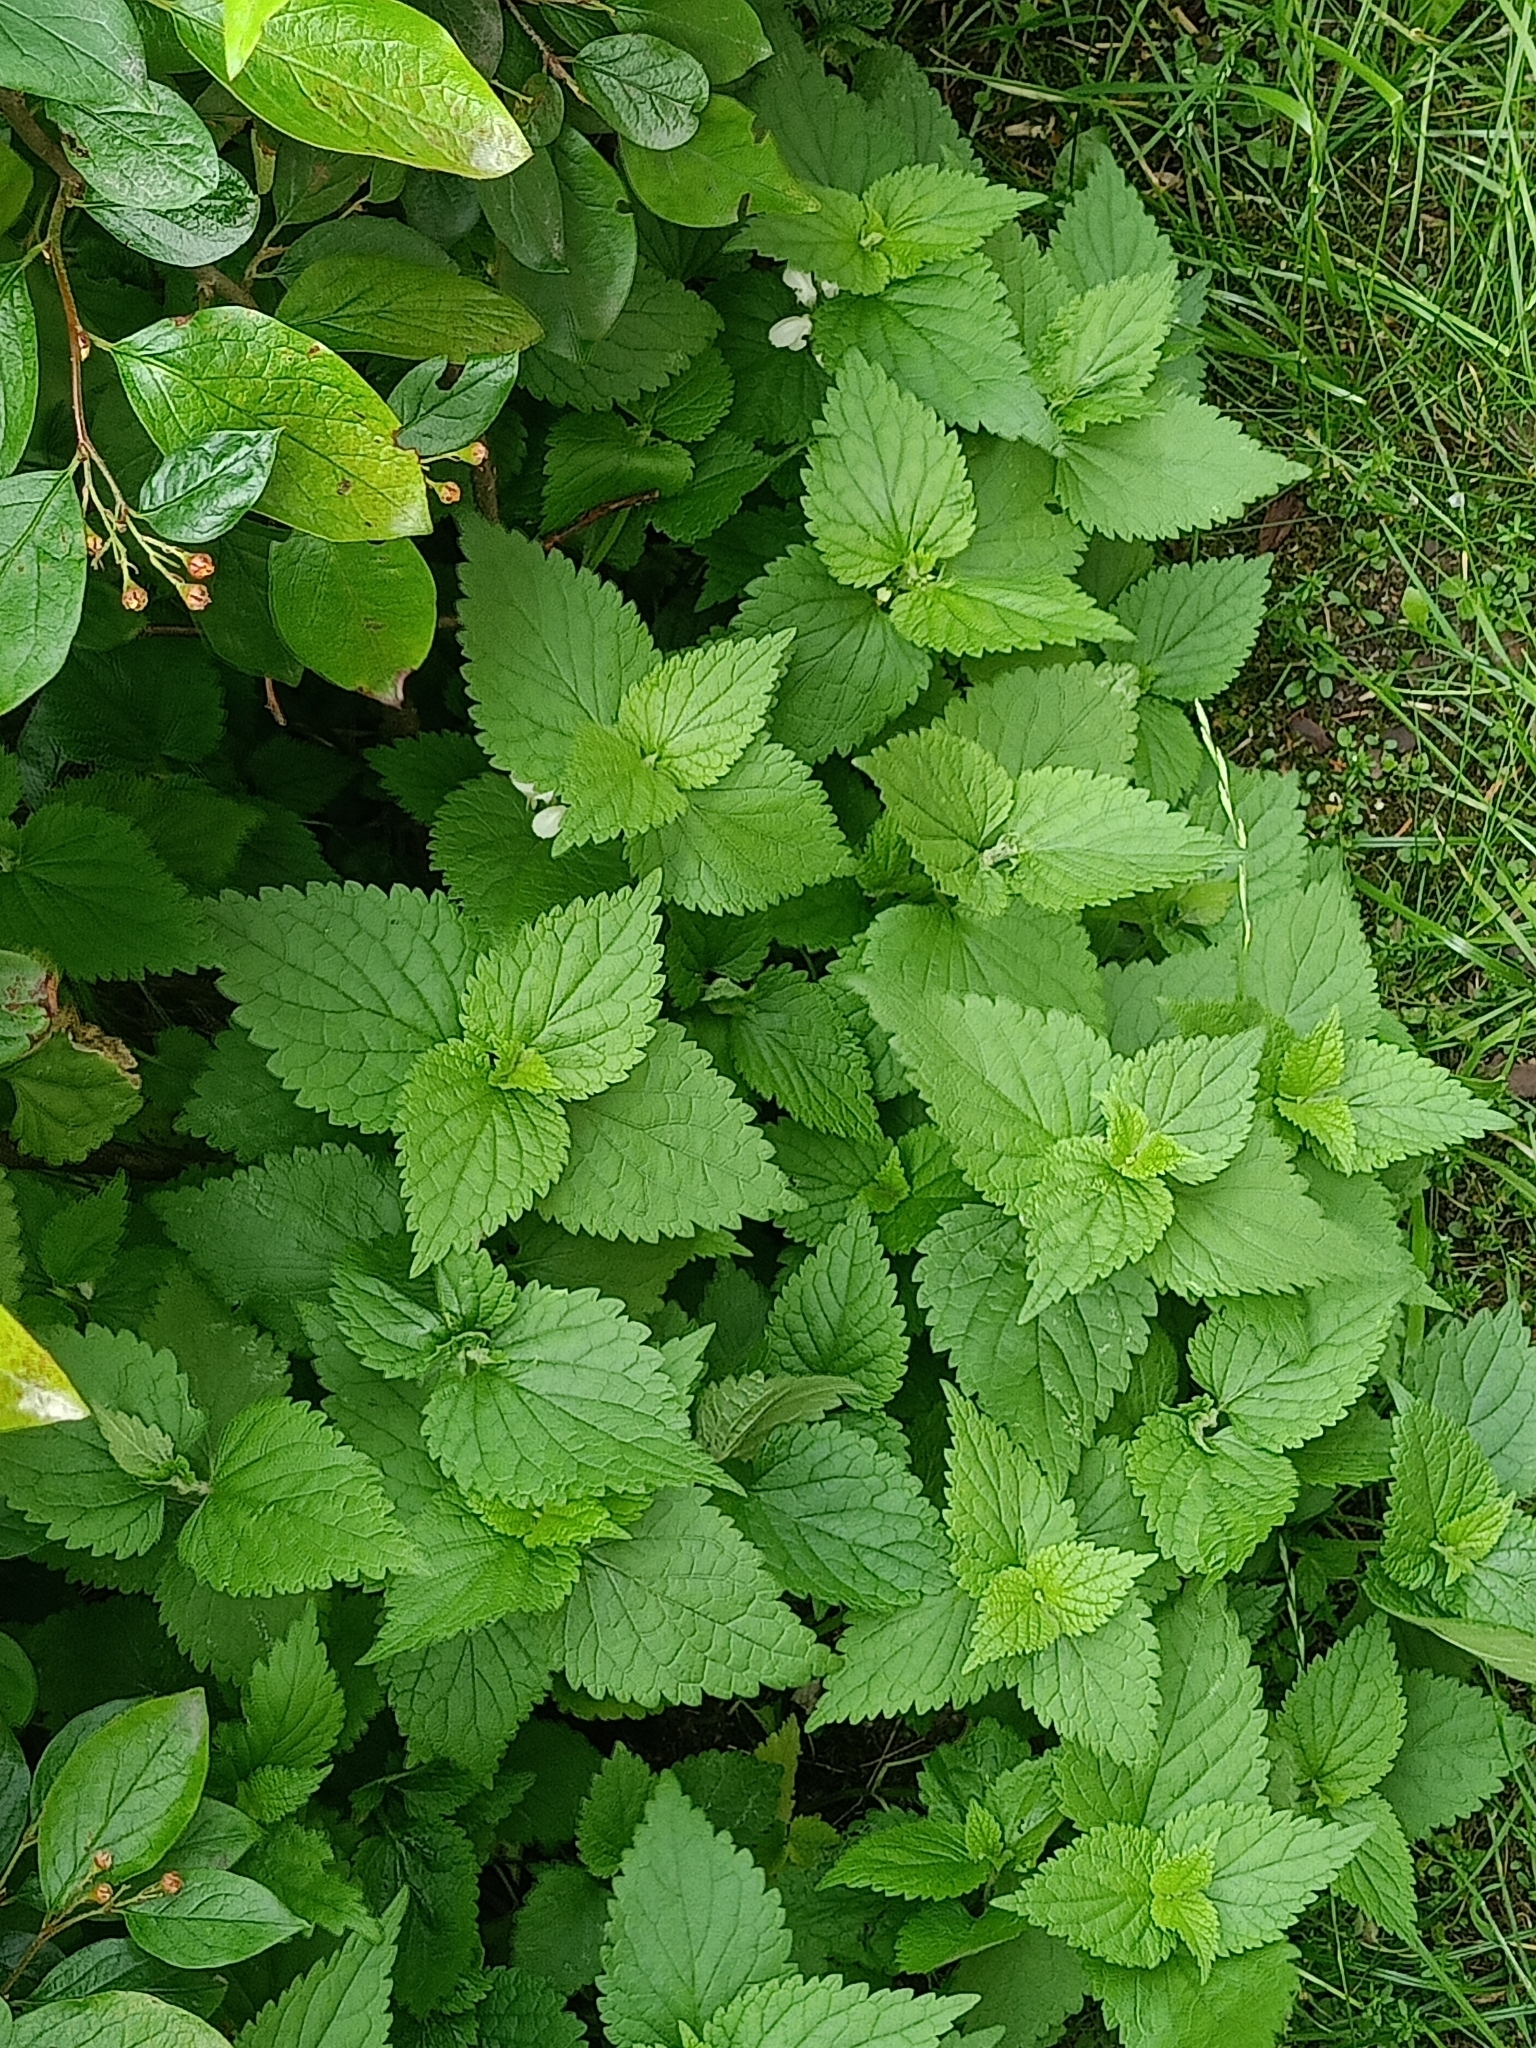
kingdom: Plantae
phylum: Tracheophyta
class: Magnoliopsida
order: Lamiales
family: Lamiaceae
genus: Lamium
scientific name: Lamium album
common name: White dead-nettle
